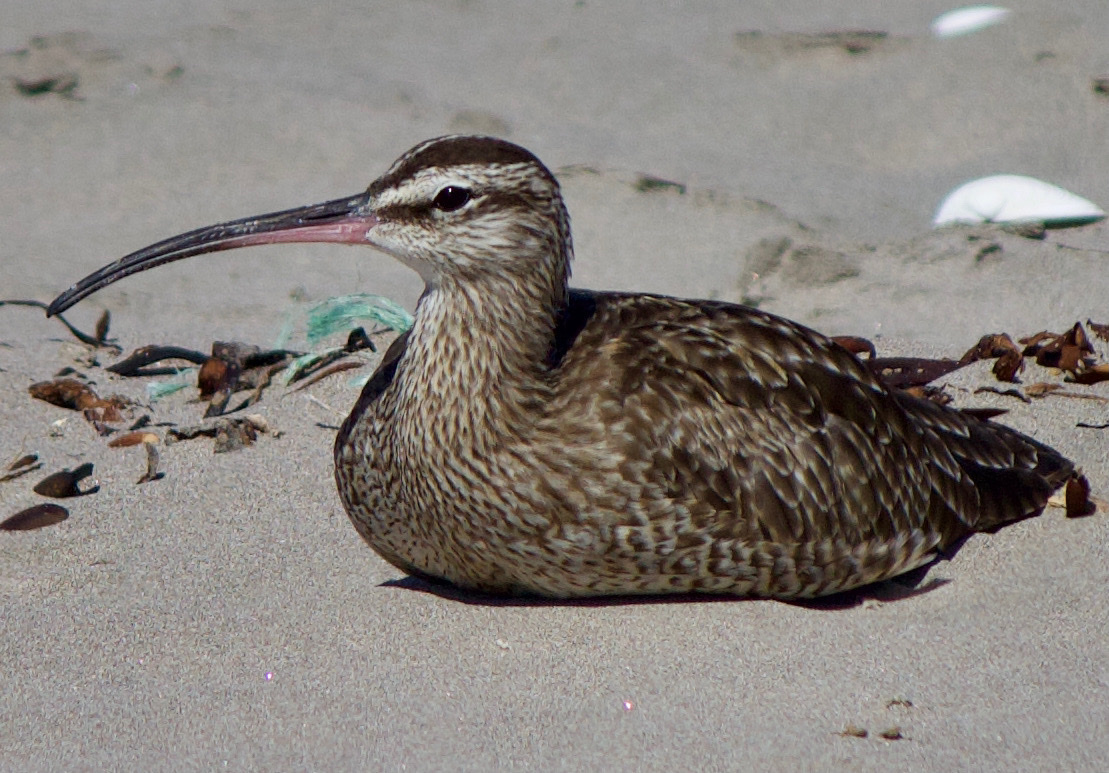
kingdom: Animalia
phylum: Chordata
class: Aves
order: Charadriiformes
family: Scolopacidae
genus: Numenius
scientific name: Numenius phaeopus
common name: Whimbrel
